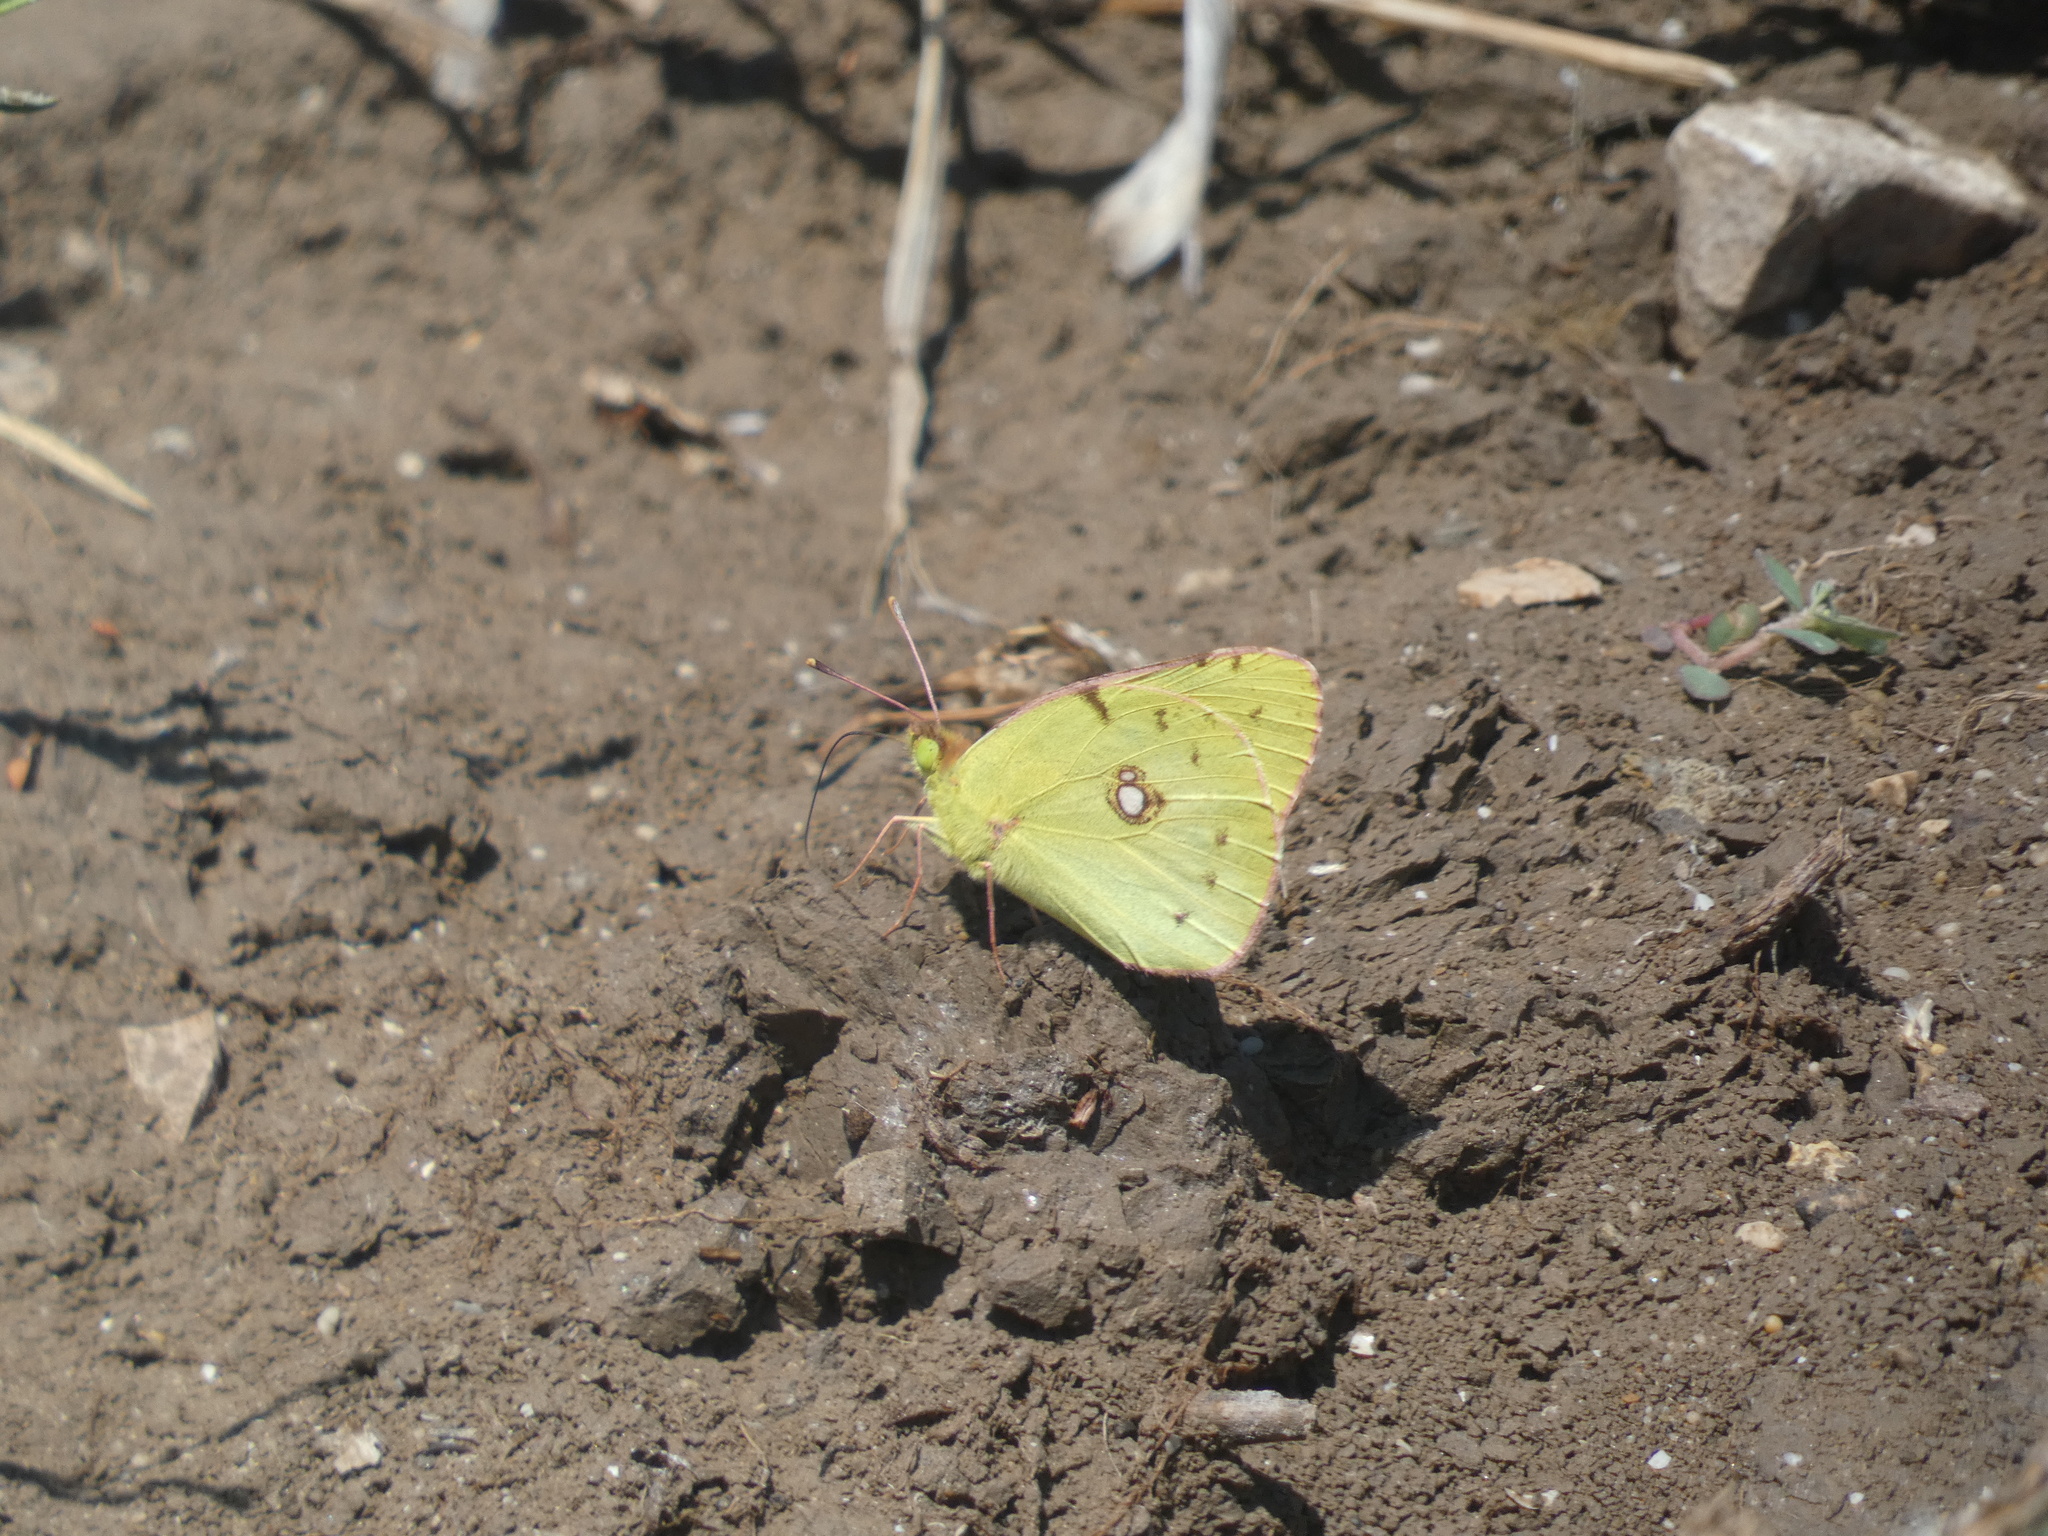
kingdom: Animalia
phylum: Arthropoda
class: Insecta
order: Lepidoptera
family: Pieridae
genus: Colias
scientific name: Colias croceus
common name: Clouded yellow
